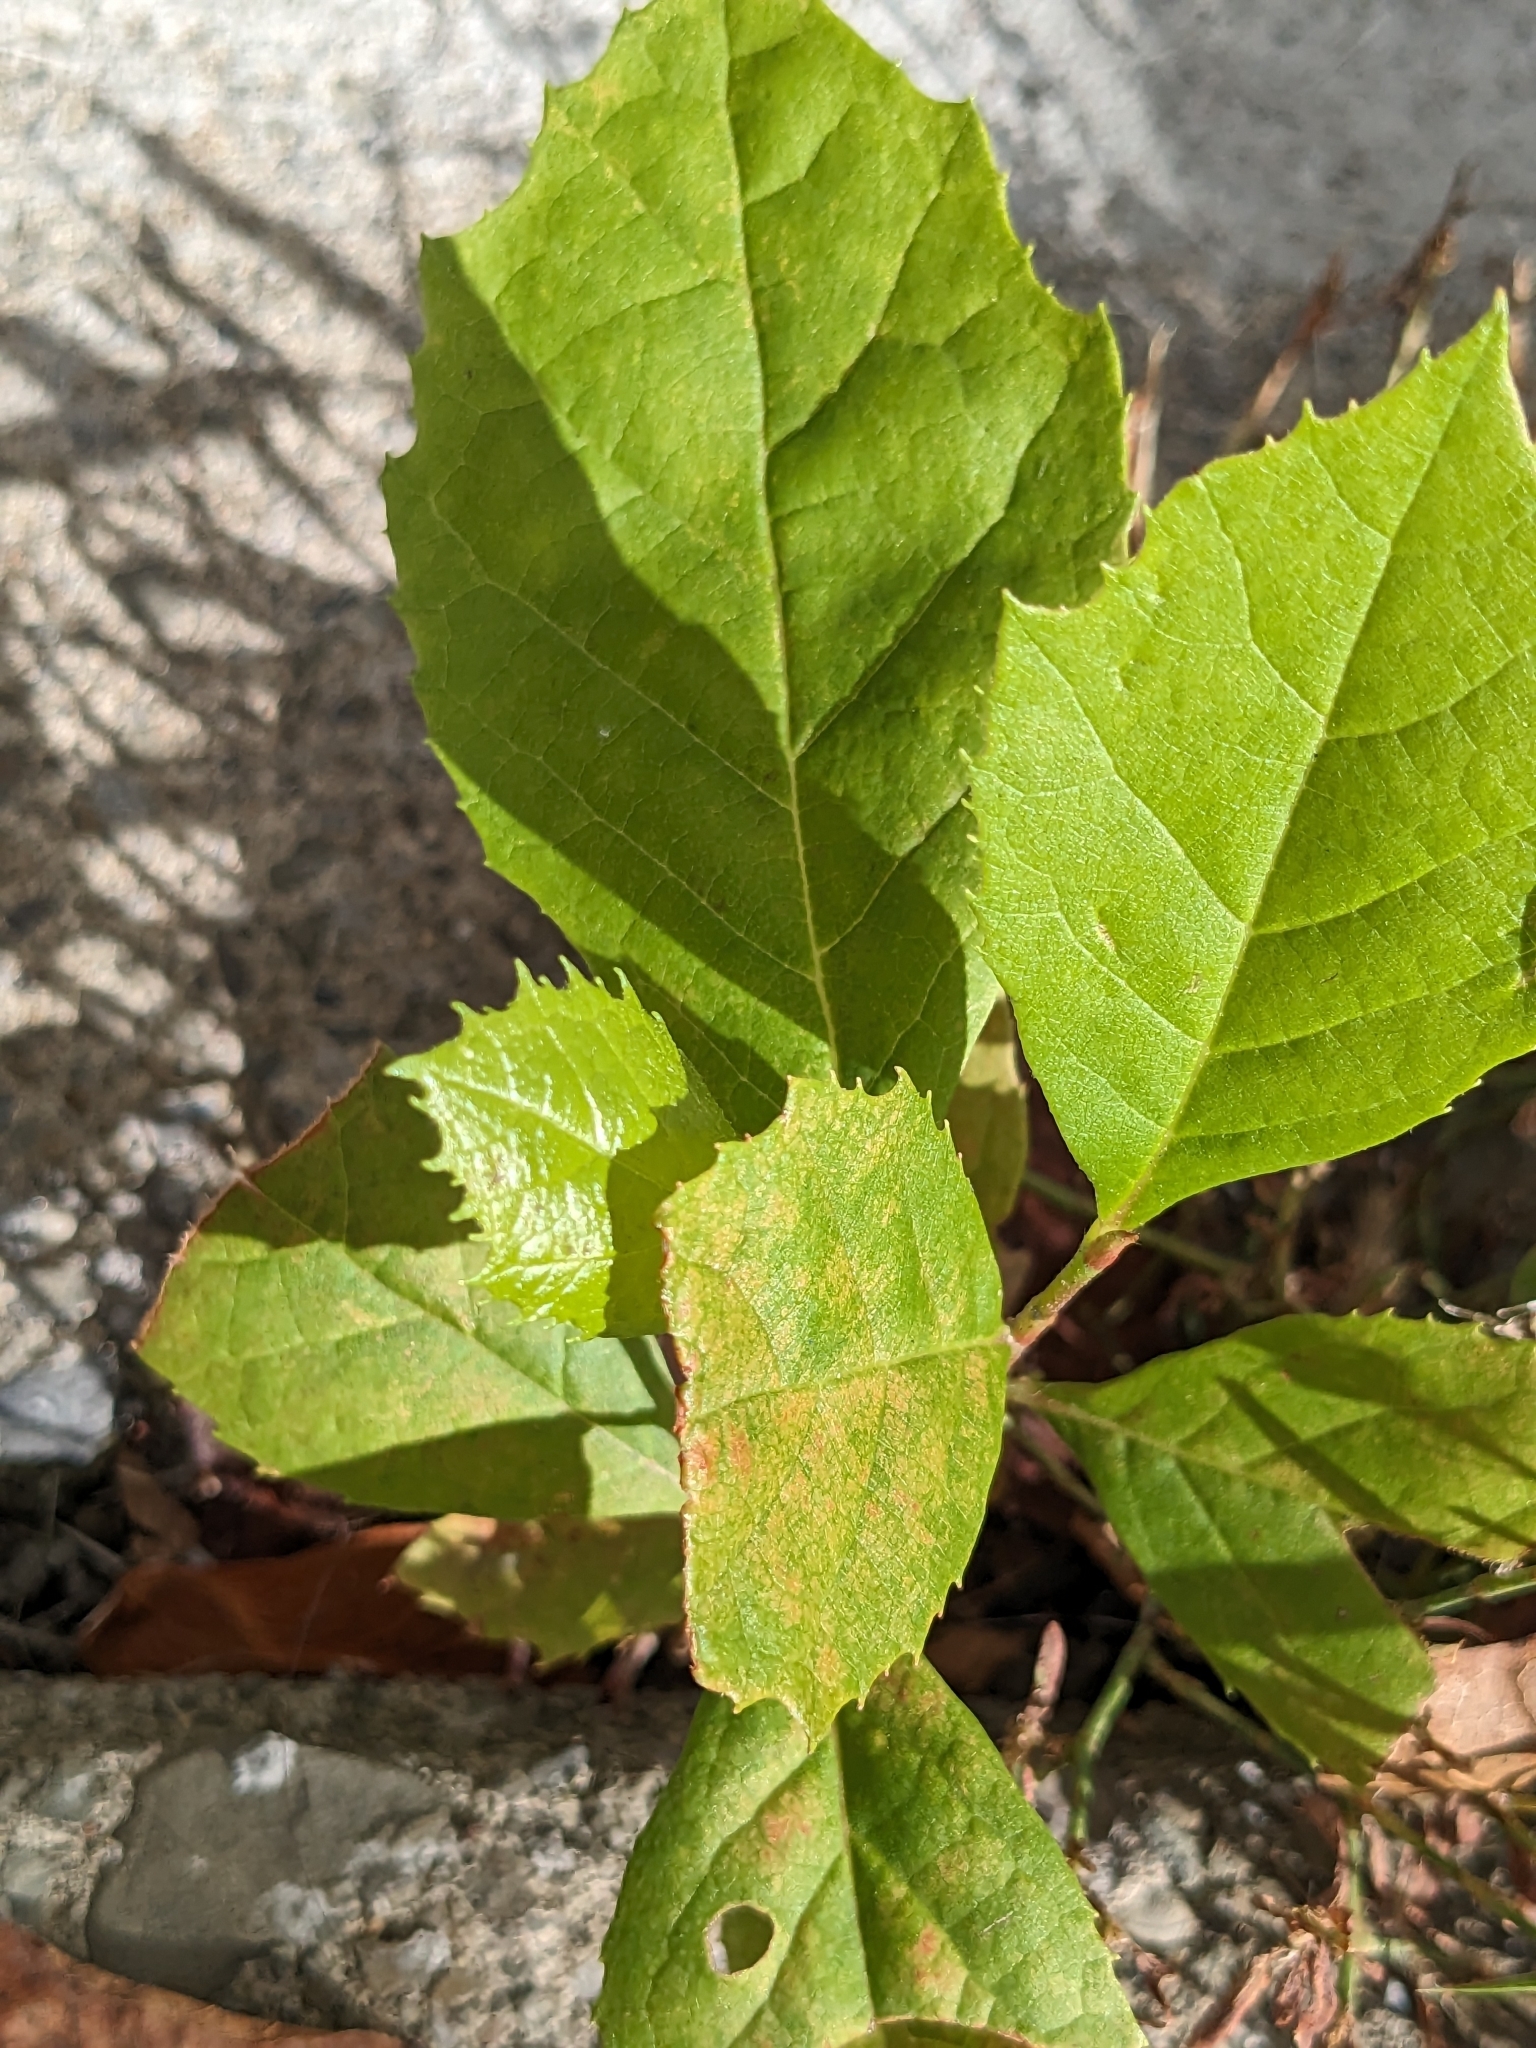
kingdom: Plantae
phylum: Tracheophyta
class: Magnoliopsida
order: Proteales
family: Platanaceae
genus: Platanus
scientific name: Platanus occidentalis
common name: American sycamore
